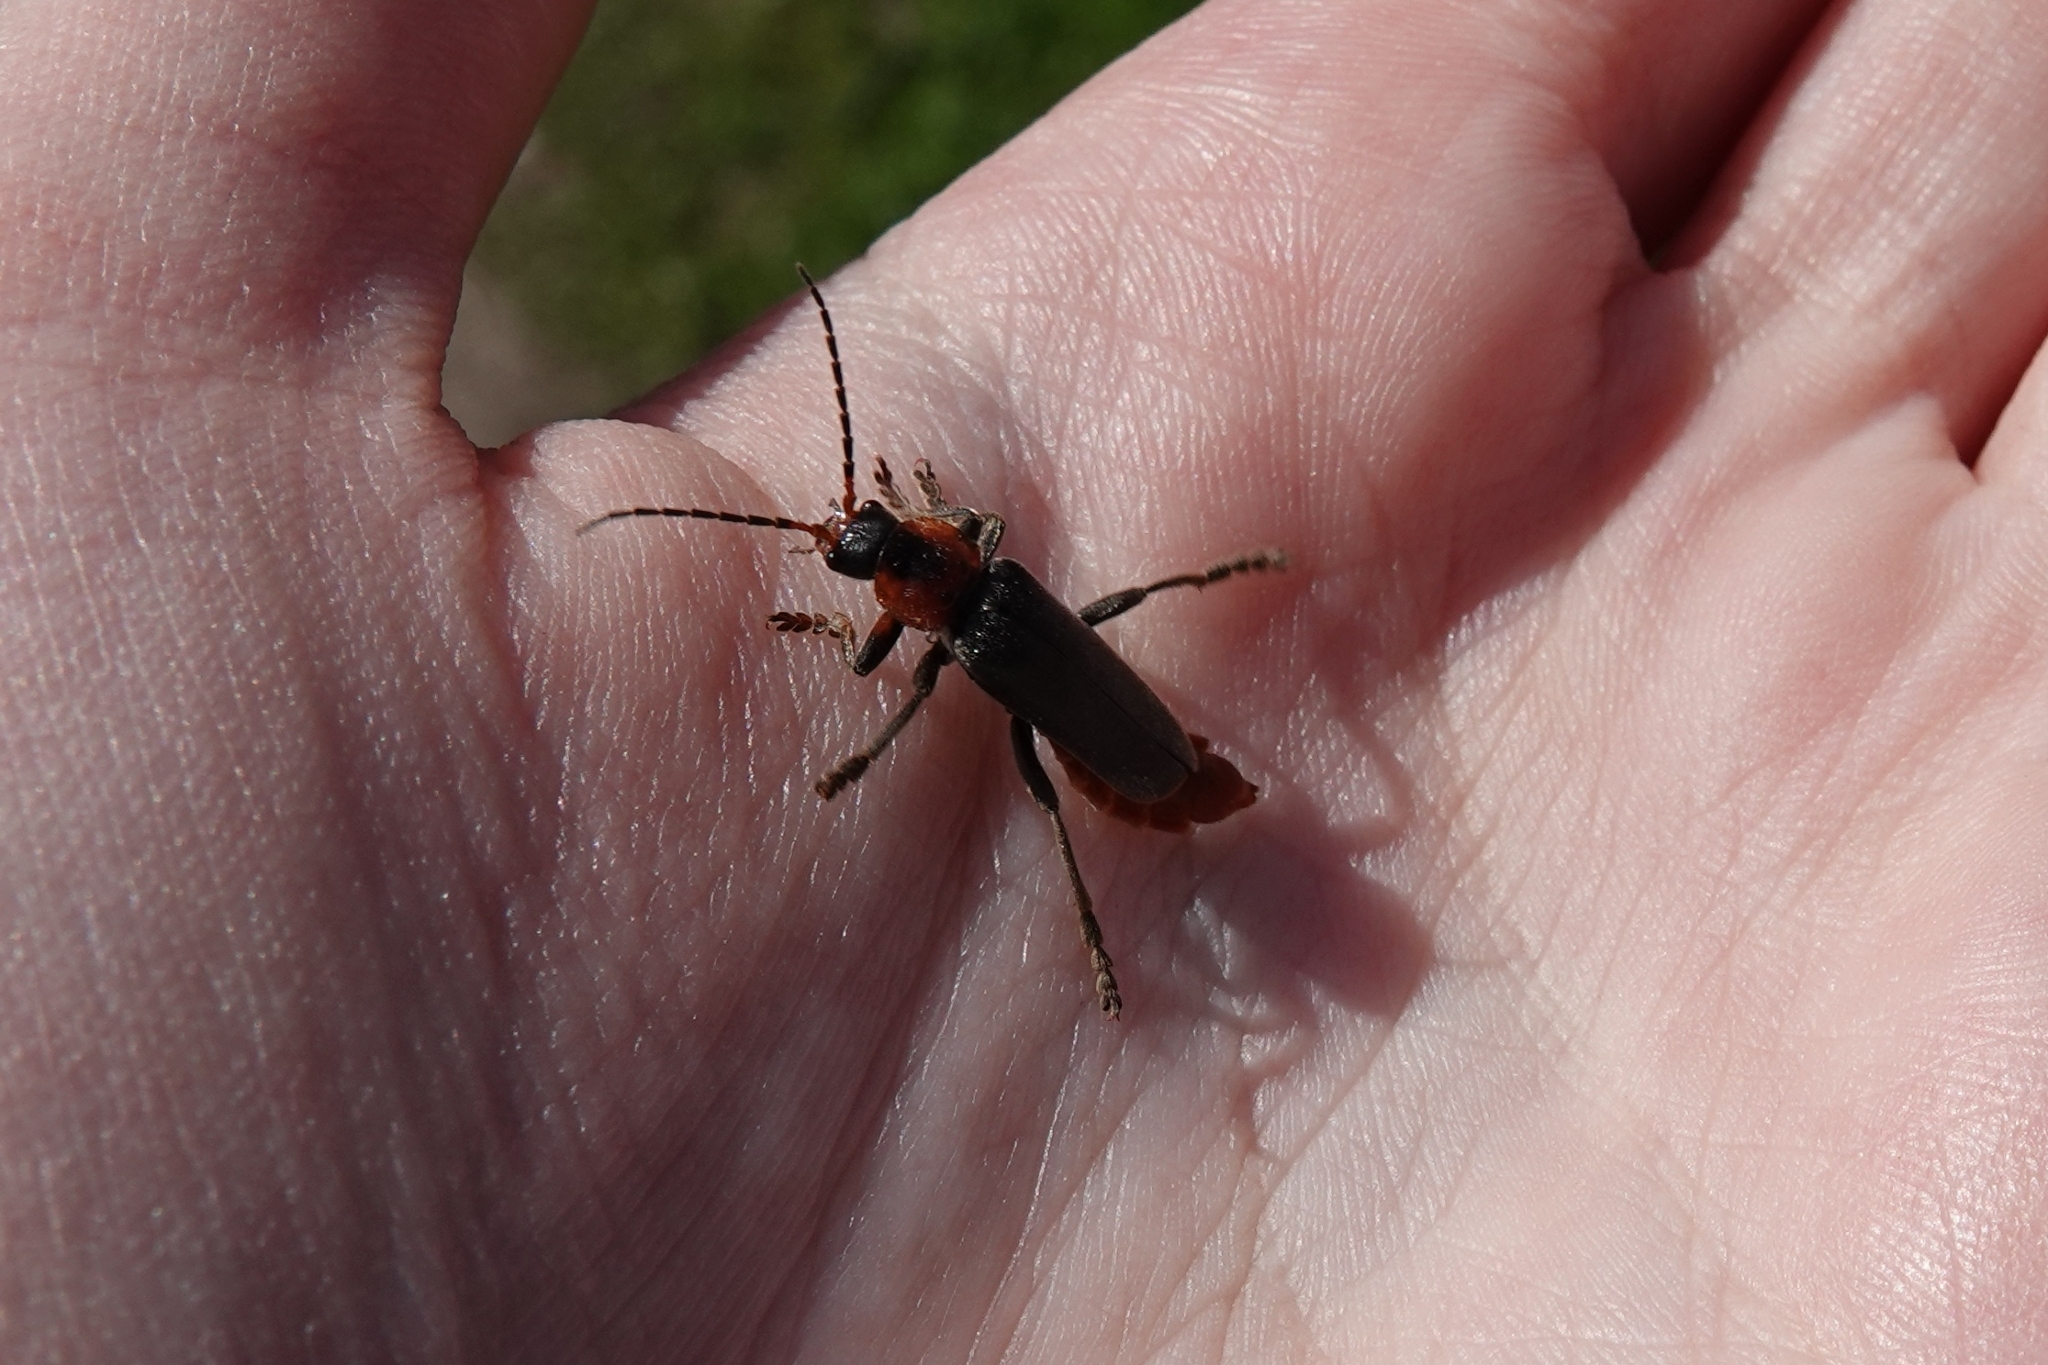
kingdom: Animalia
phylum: Arthropoda
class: Insecta
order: Coleoptera
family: Cantharidae
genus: Cantharis
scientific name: Cantharis fusca
